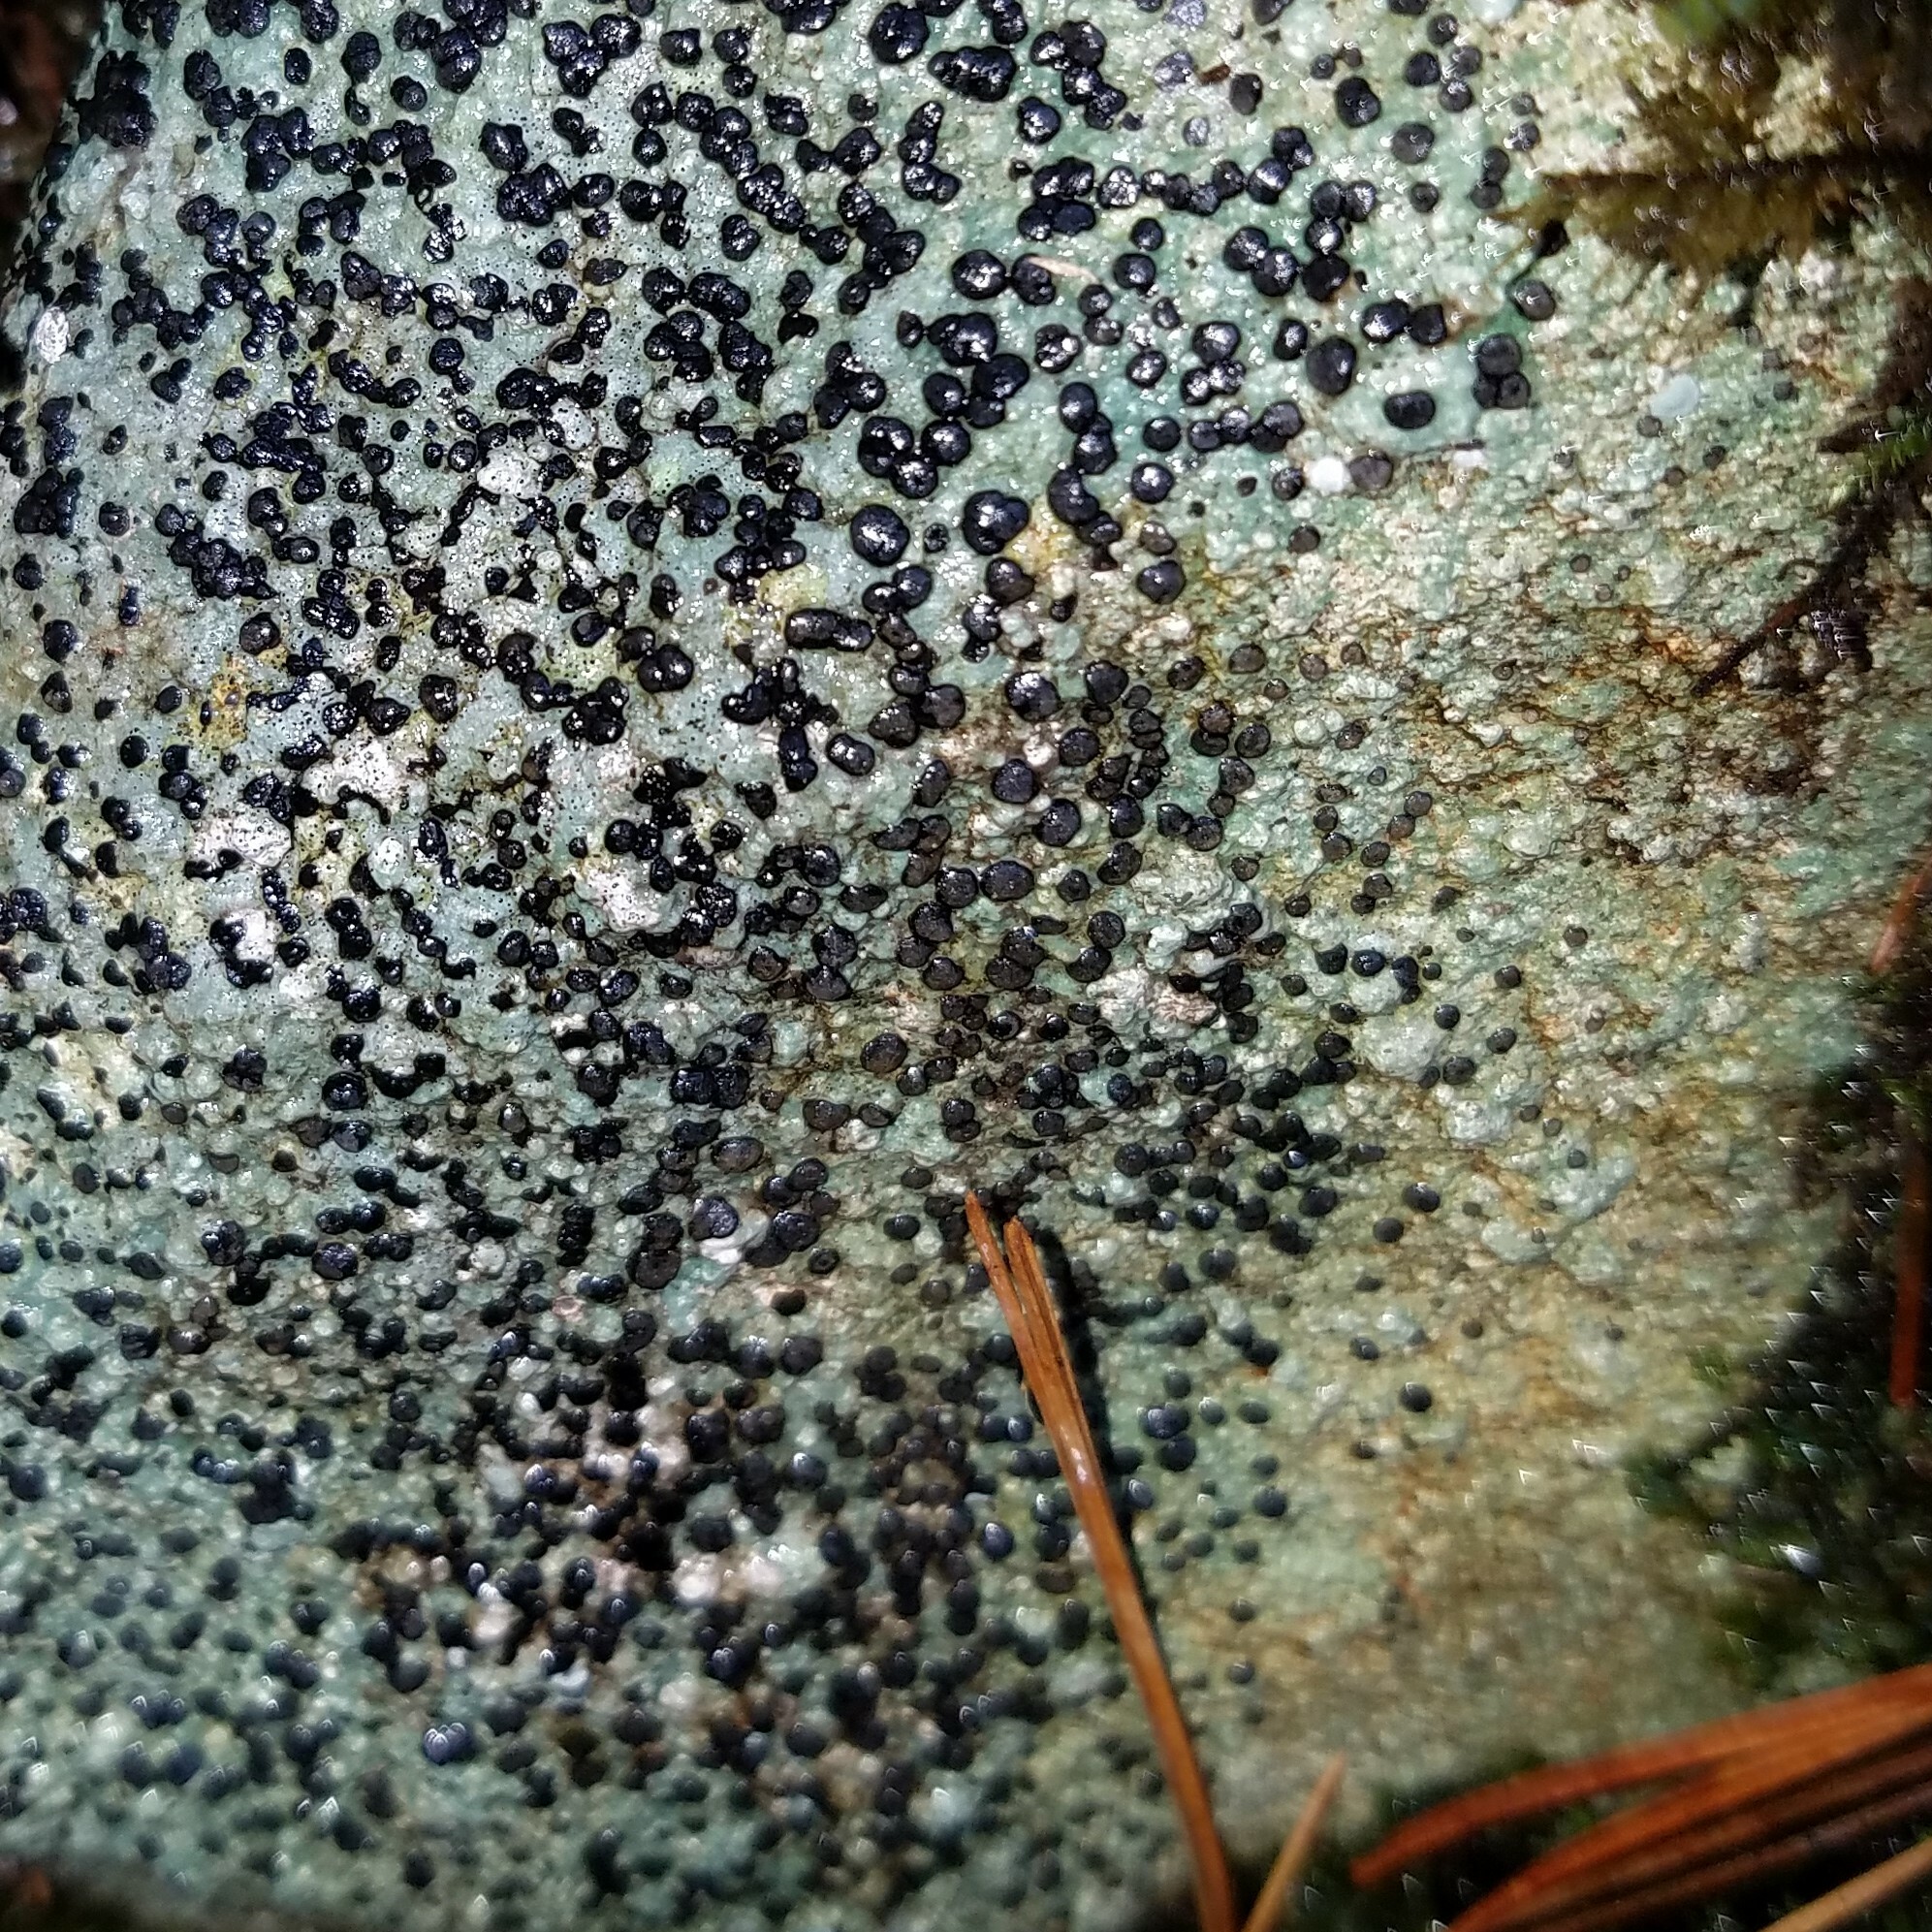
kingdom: Fungi
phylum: Ascomycota
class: Lecanoromycetes
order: Lecideales
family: Lecideaceae
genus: Porpidia
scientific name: Porpidia albocaerulescens
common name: Smokey-eyed boulder lichen
